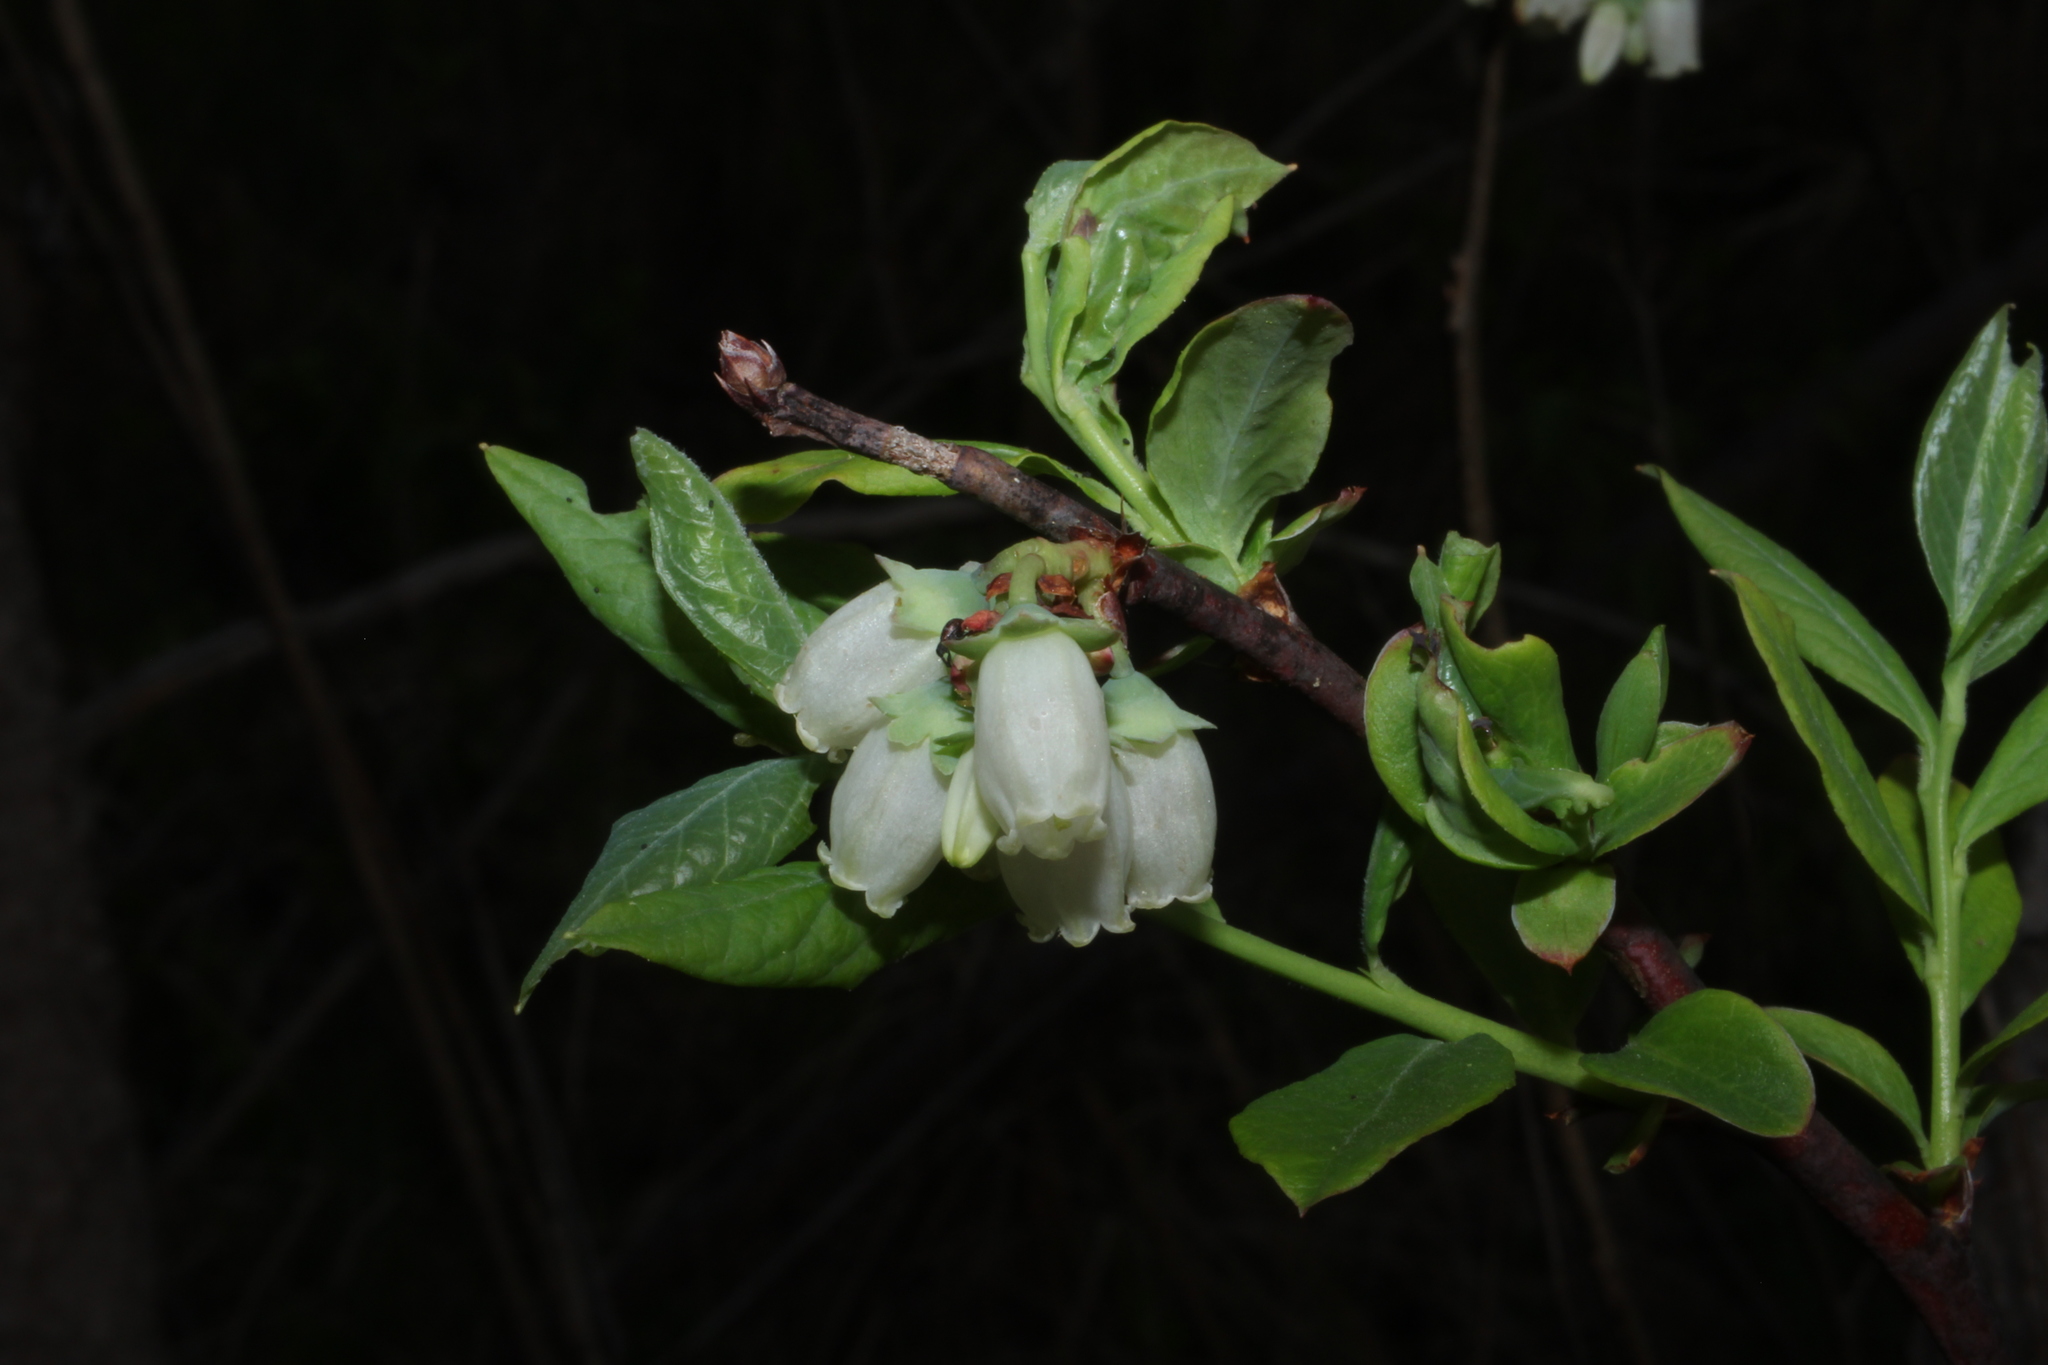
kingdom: Plantae
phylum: Tracheophyta
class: Magnoliopsida
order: Ericales
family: Ericaceae
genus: Vaccinium
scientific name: Vaccinium corymbosum
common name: Blueberry
